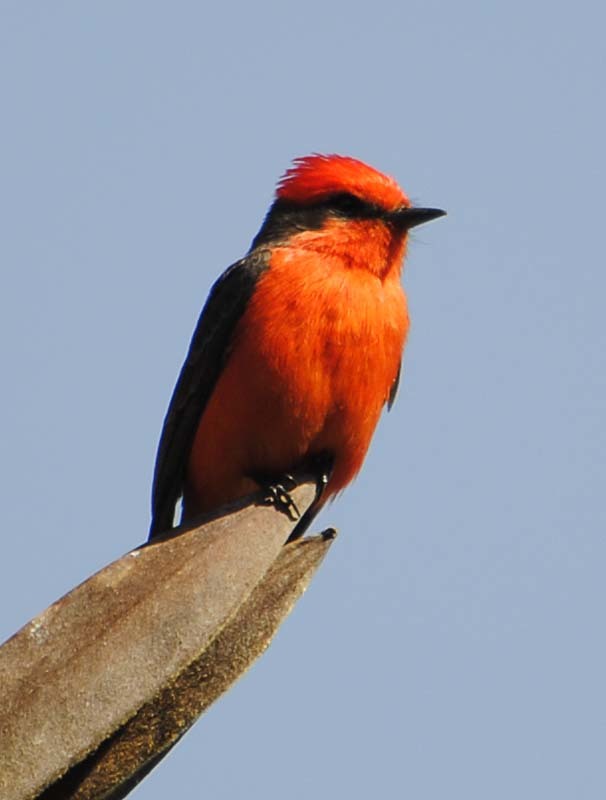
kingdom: Animalia
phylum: Chordata
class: Aves
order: Passeriformes
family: Tyrannidae
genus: Pyrocephalus
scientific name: Pyrocephalus rubinus
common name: Vermilion flycatcher
